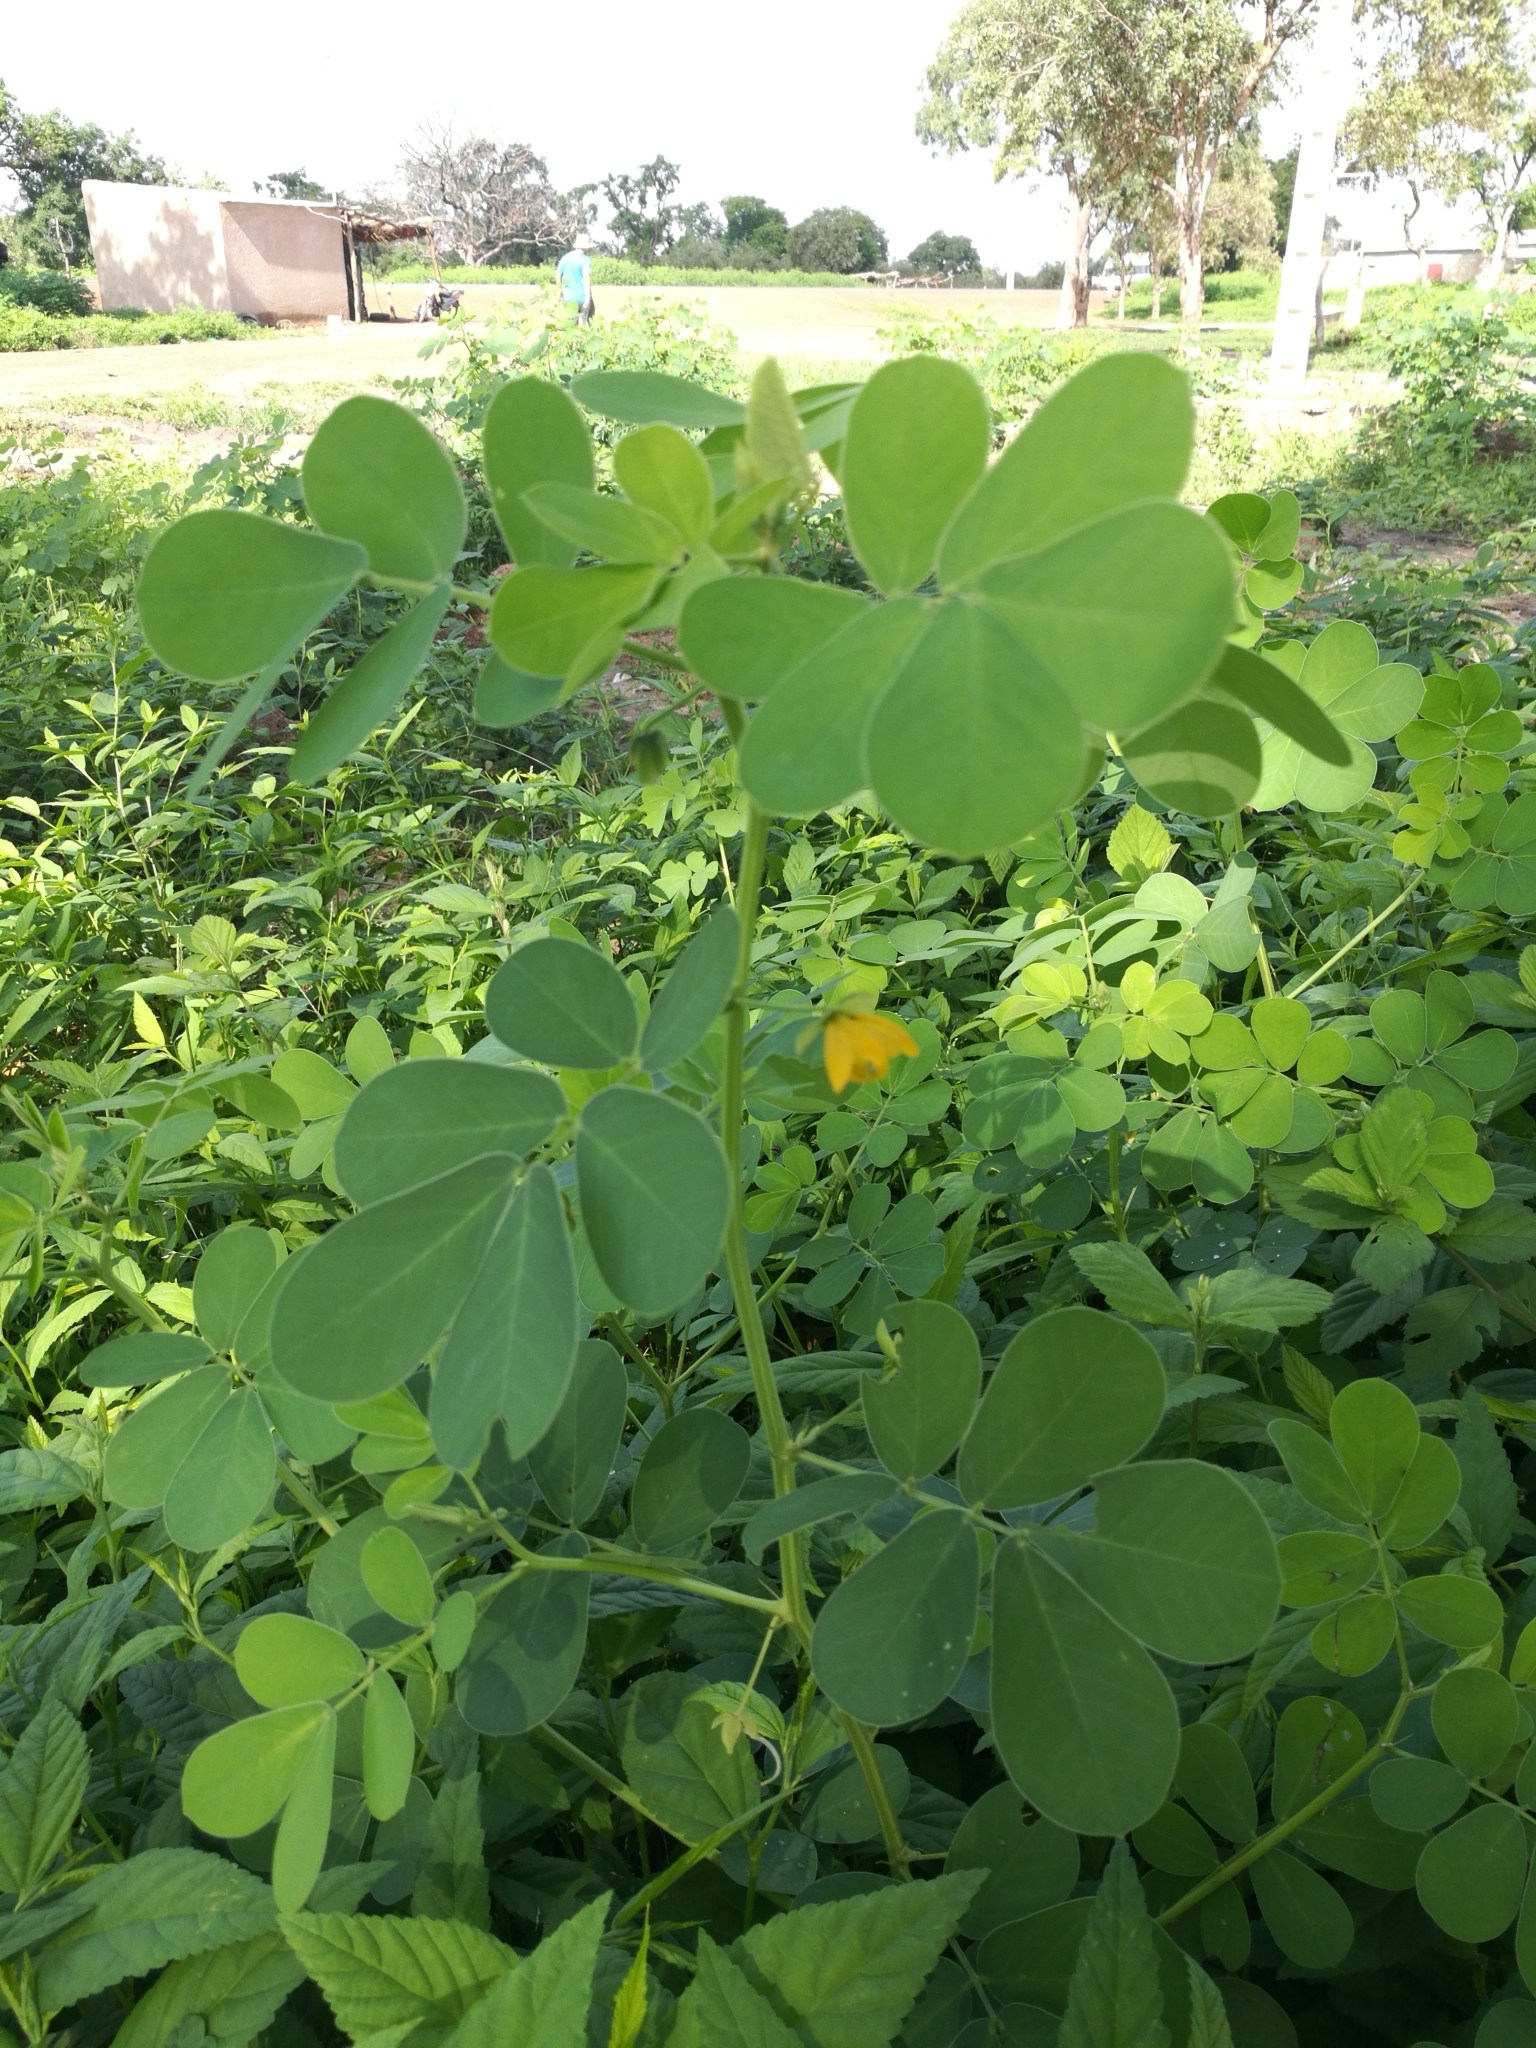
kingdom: Plantae
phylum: Tracheophyta
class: Magnoliopsida
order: Fabales
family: Fabaceae
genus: Senna
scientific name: Senna obtusifolia
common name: Java-bean
